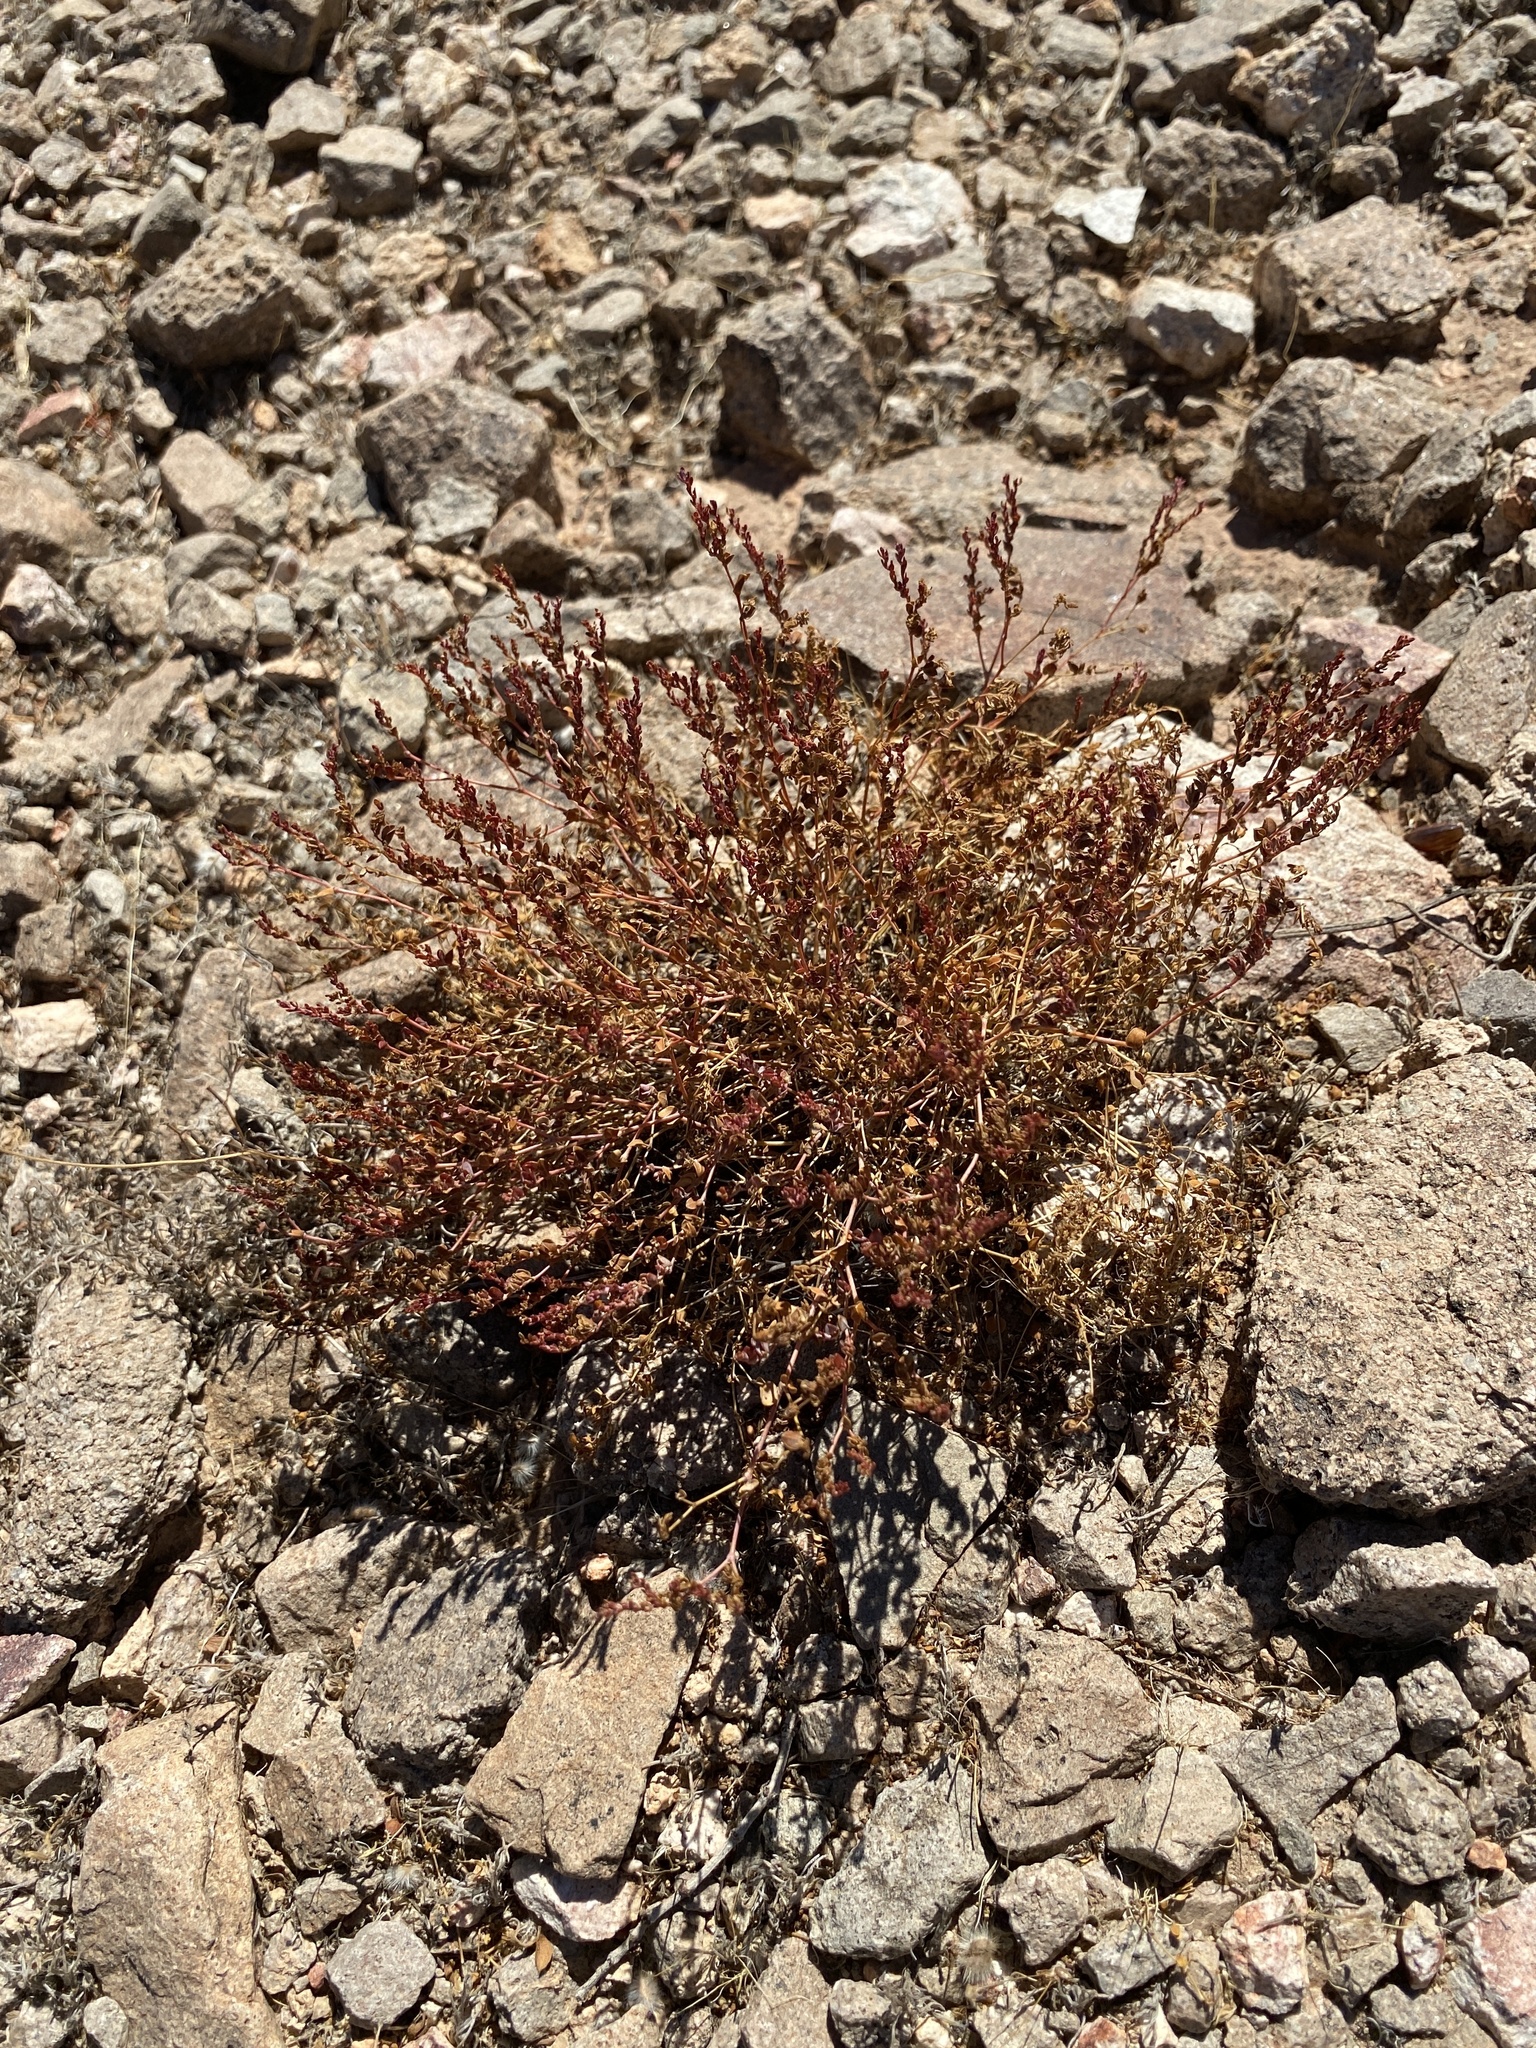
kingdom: Plantae
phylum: Tracheophyta
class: Magnoliopsida
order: Malpighiales
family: Euphorbiaceae
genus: Euphorbia
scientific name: Euphorbia polycarpa
